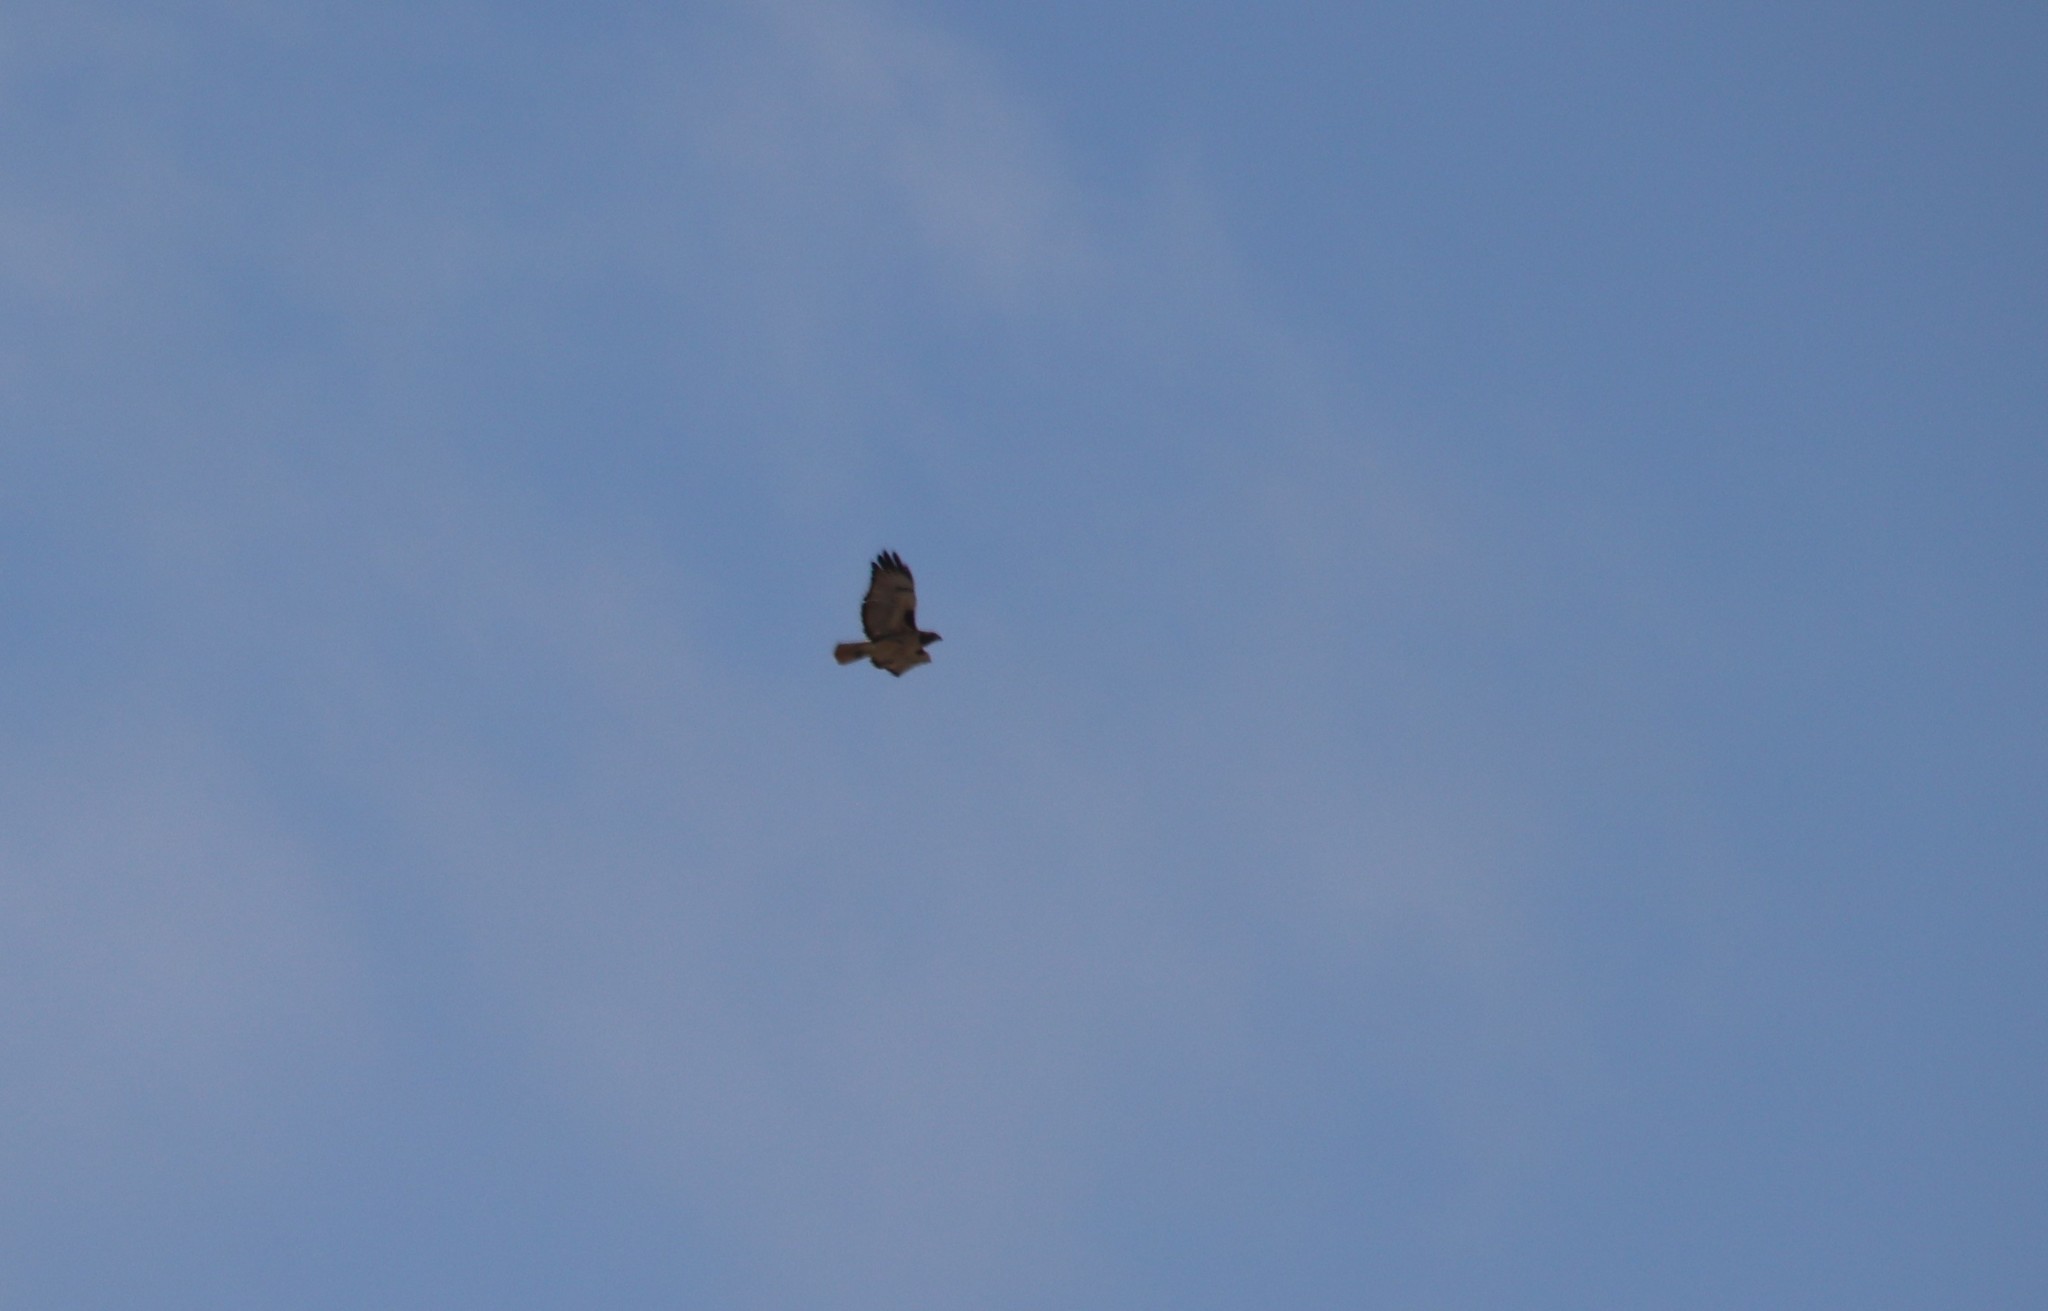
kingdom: Animalia
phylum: Chordata
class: Aves
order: Accipitriformes
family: Accipitridae
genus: Buteo
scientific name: Buteo jamaicensis
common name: Red-tailed hawk
